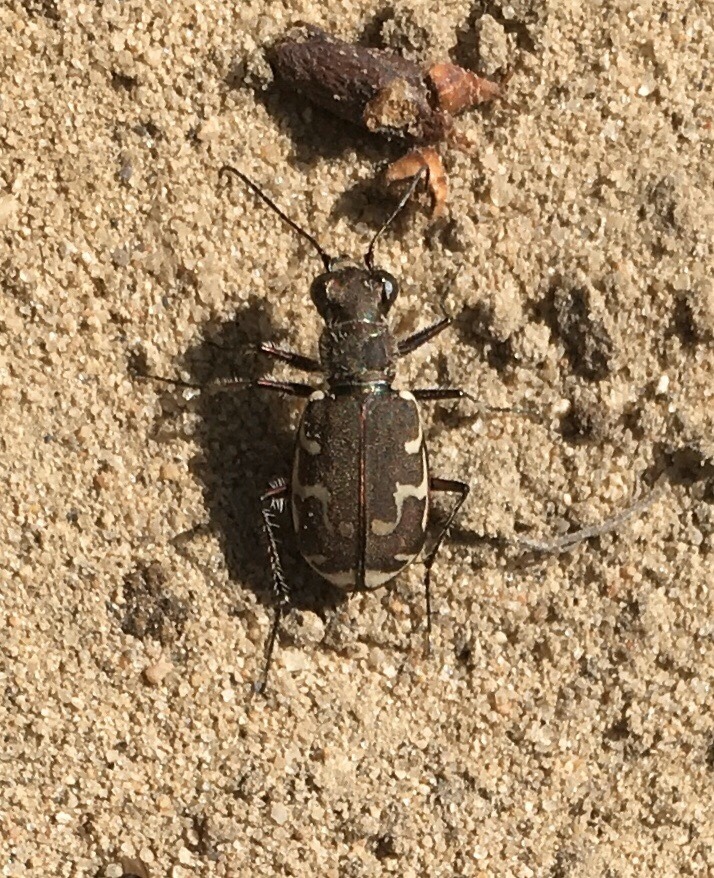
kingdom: Animalia
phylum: Arthropoda
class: Insecta
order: Coleoptera
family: Carabidae
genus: Cicindela
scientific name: Cicindela repanda
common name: Bronzed tiger beetle
